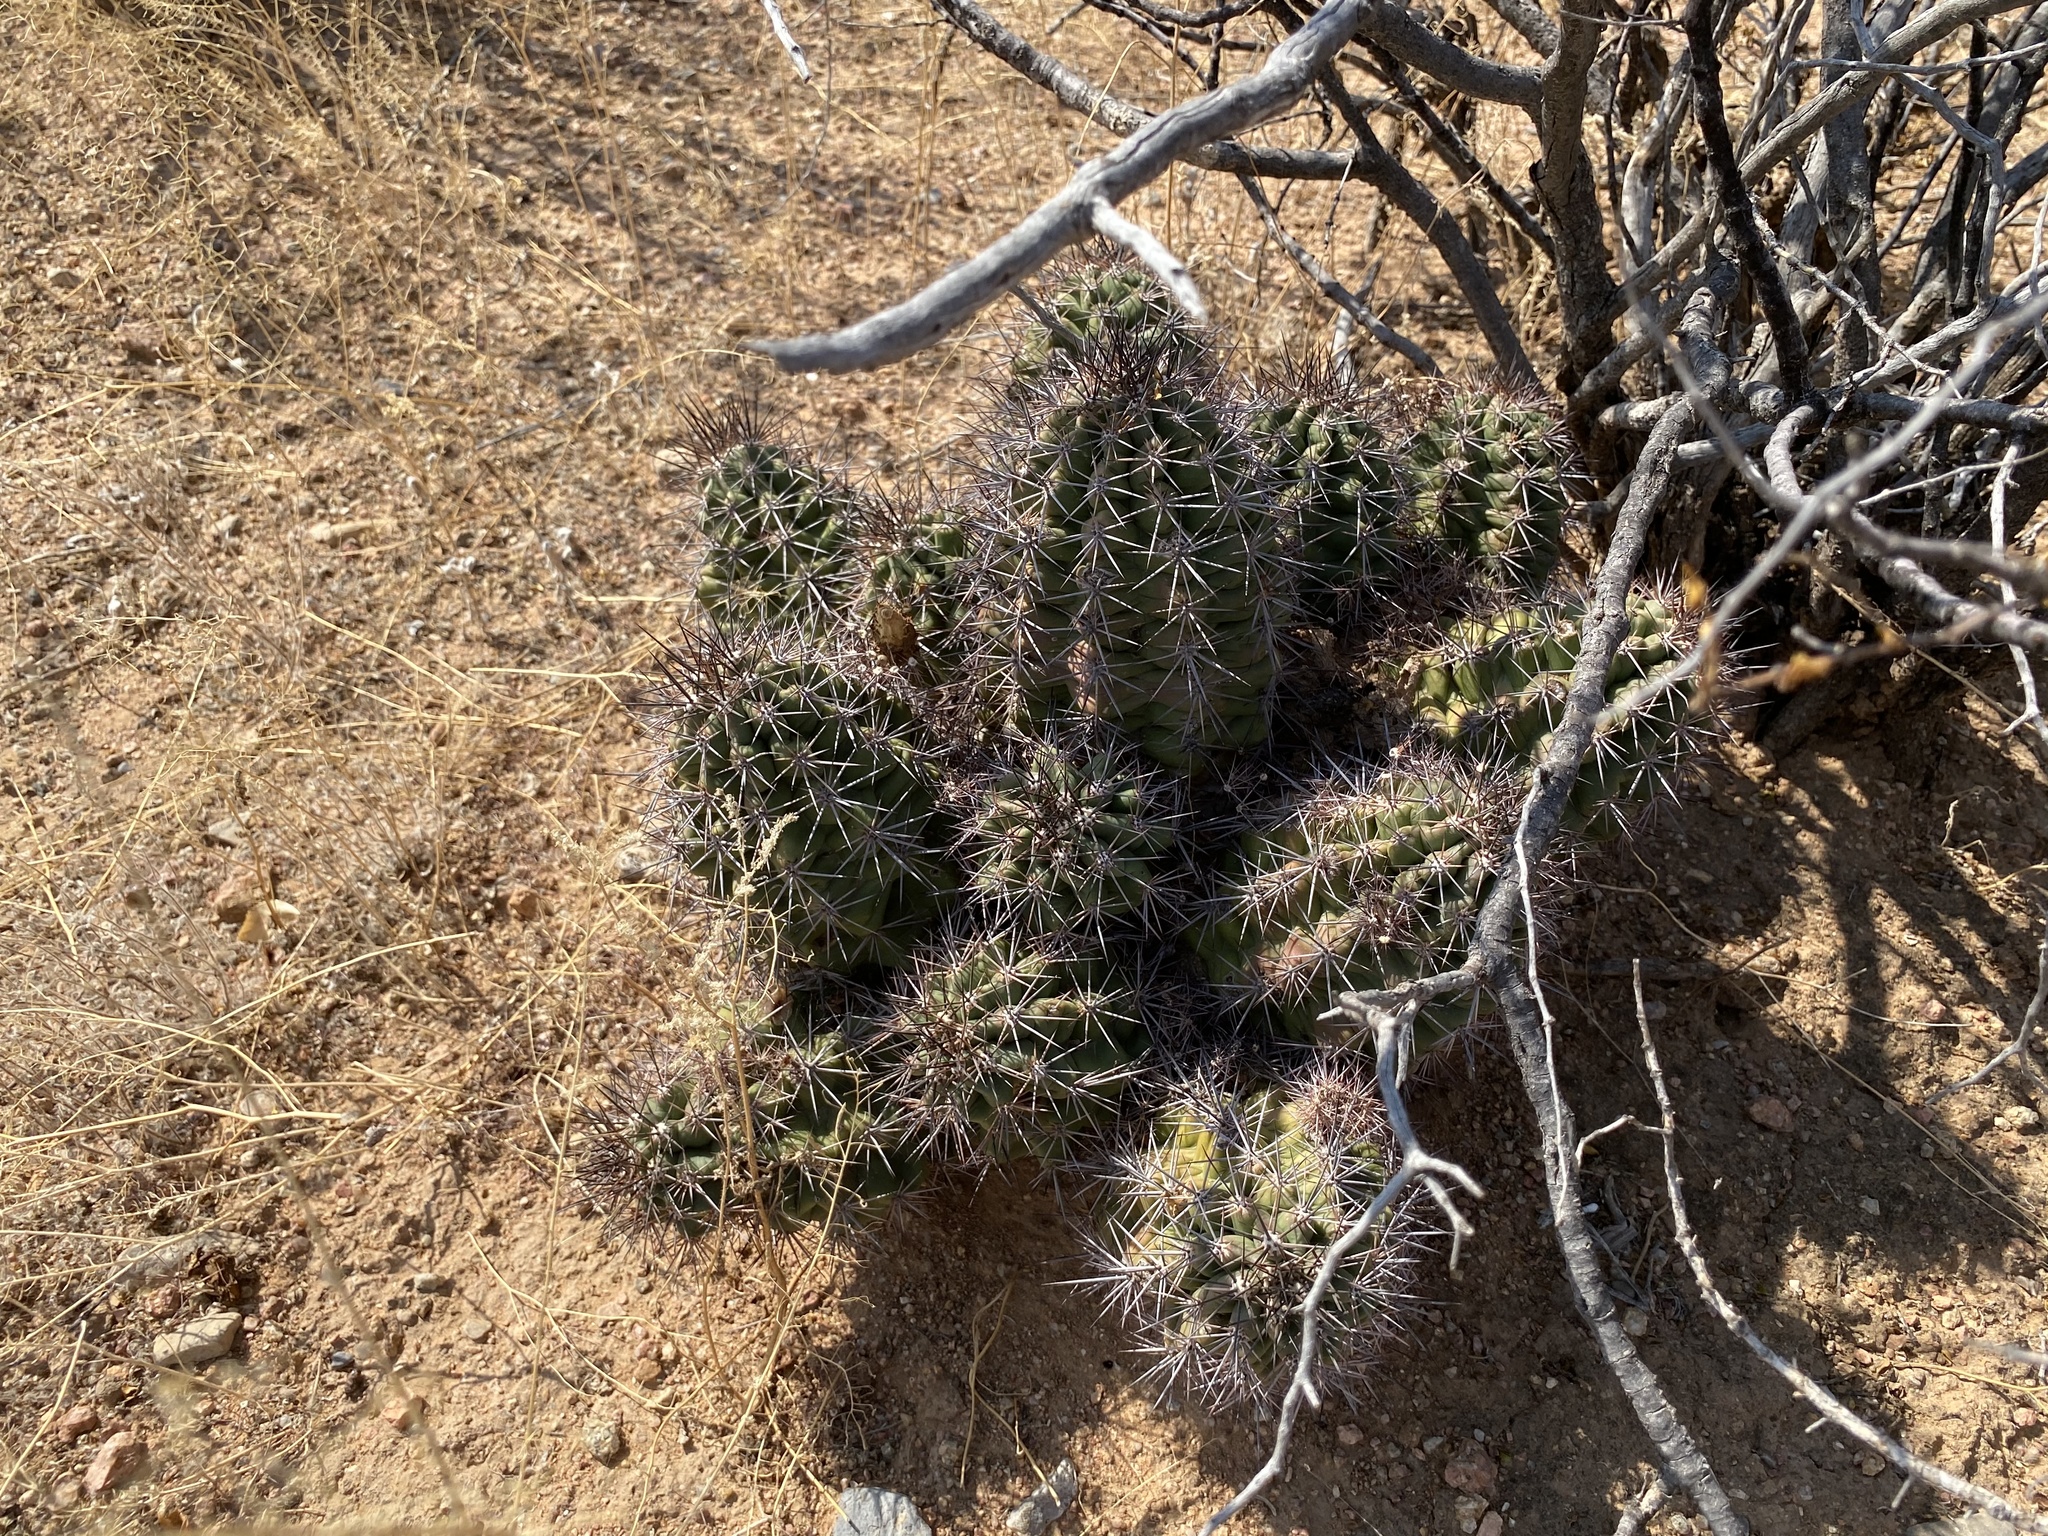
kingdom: Plantae
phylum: Tracheophyta
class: Magnoliopsida
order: Caryophyllales
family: Cactaceae
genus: Echinocereus
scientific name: Echinocereus coccineus
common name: Scarlet hedgehog cactus
